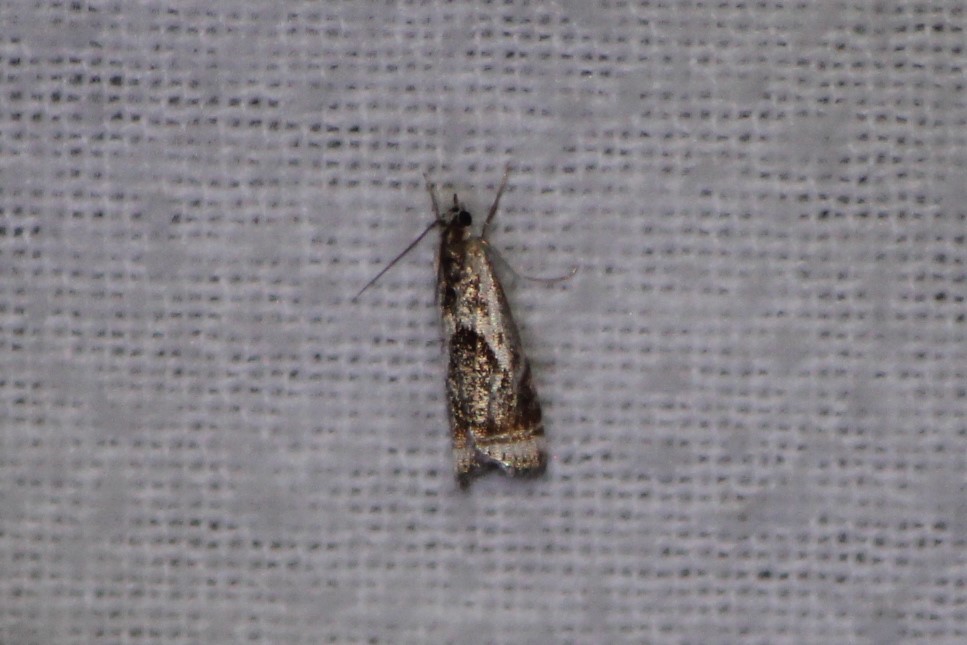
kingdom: Animalia
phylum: Arthropoda
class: Insecta
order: Lepidoptera
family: Crambidae
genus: Microcrambus
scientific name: Microcrambus elegans
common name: Elegant grass-veneer
